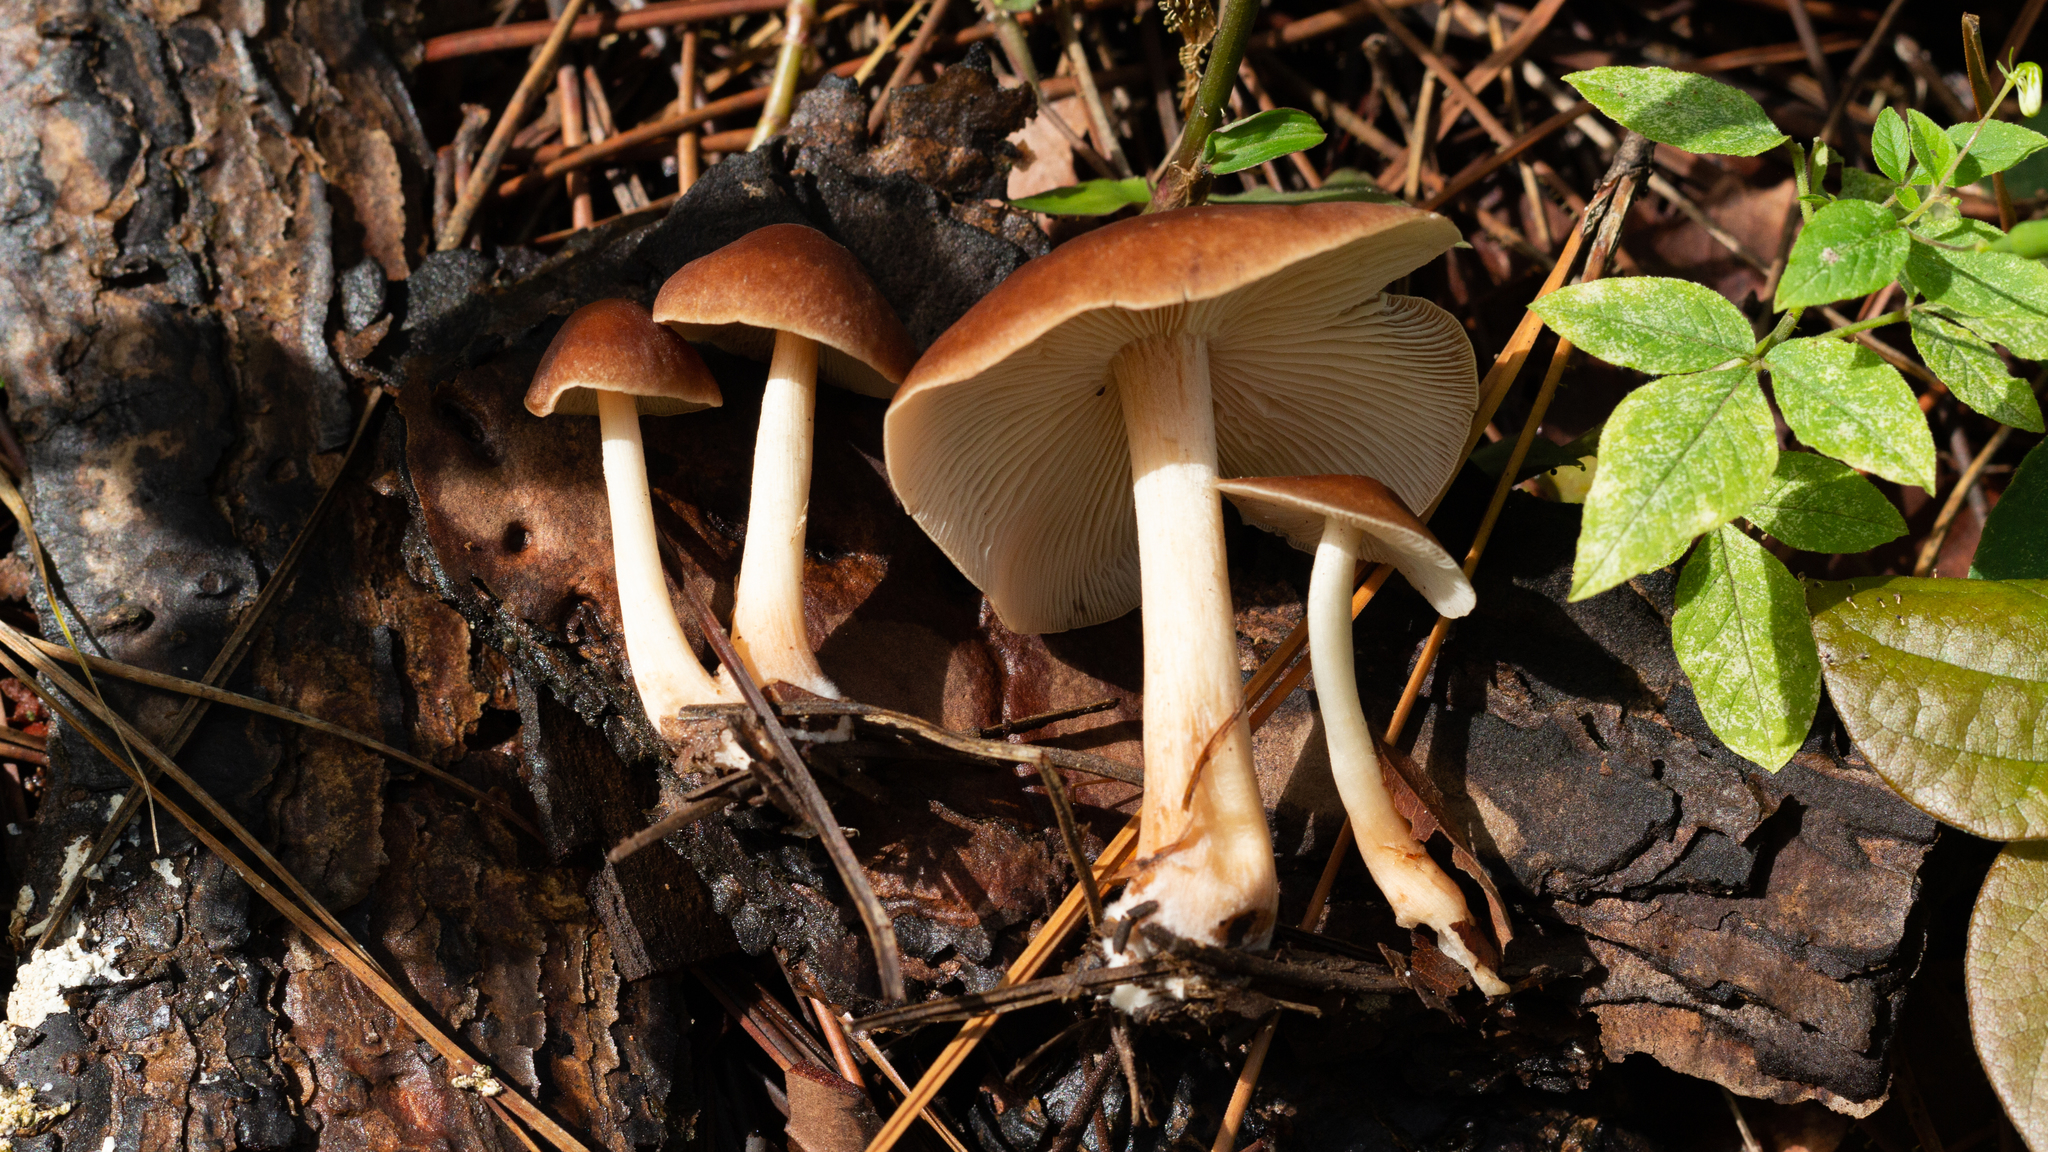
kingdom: Fungi
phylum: Basidiomycota
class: Agaricomycetes
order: Agaricales
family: Omphalotaceae
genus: Rhodocollybia
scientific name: Rhodocollybia prolixa
